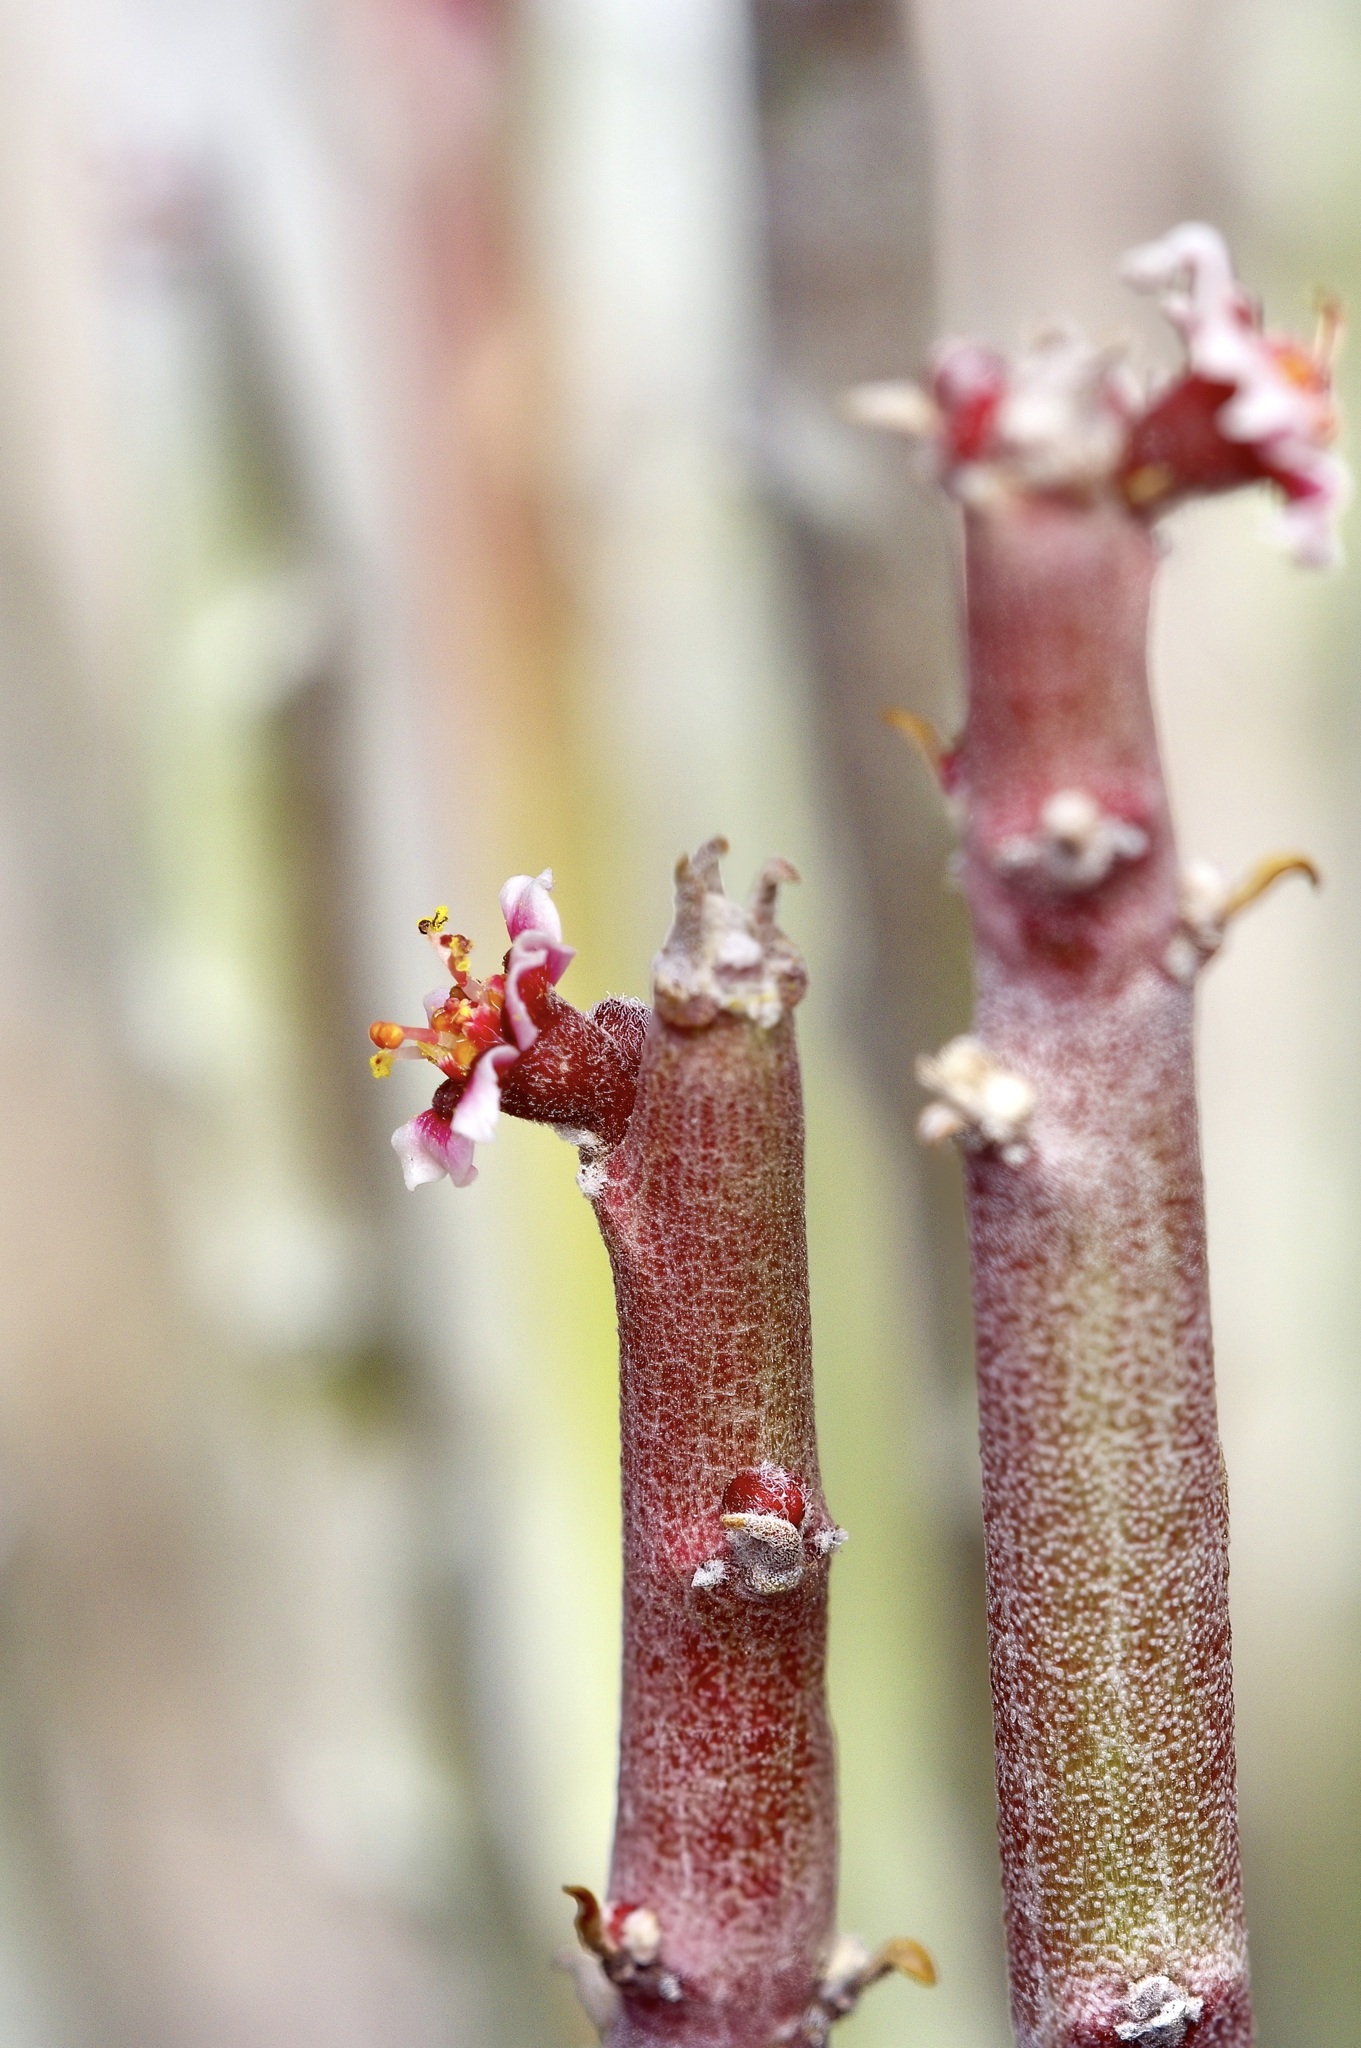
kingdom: Plantae
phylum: Tracheophyta
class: Magnoliopsida
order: Malpighiales
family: Euphorbiaceae
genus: Euphorbia
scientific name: Euphorbia antisyphilitica
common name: Candelilla
